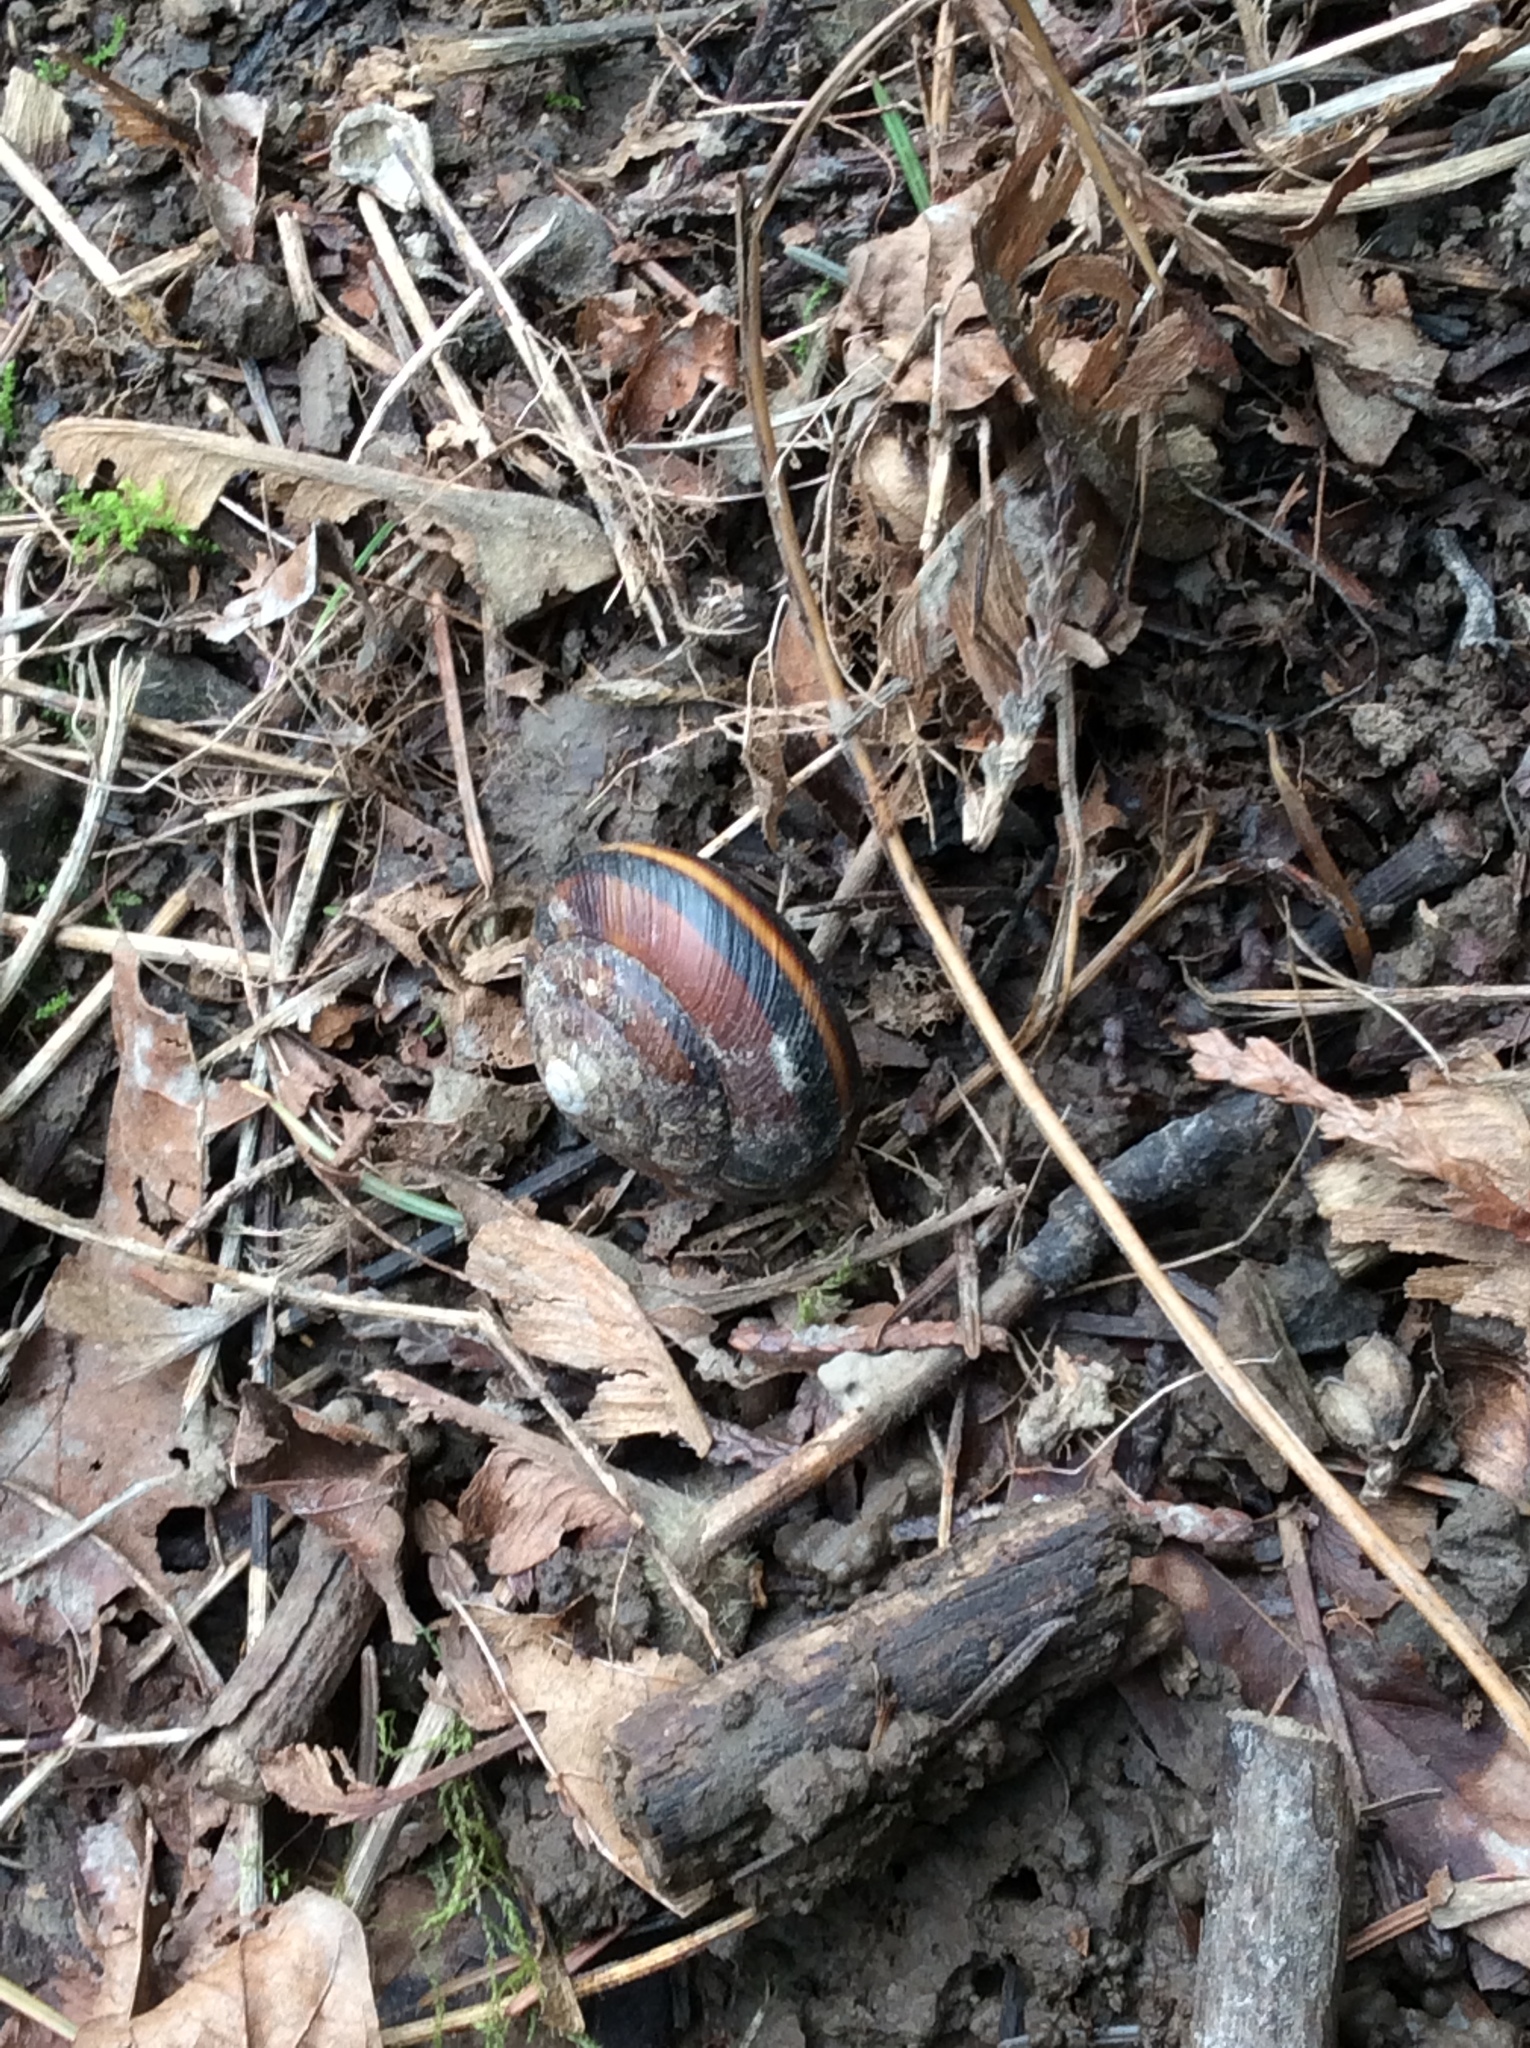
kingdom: Animalia
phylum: Mollusca
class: Gastropoda
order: Stylommatophora
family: Xanthonychidae
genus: Monadenia
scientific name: Monadenia fidelis
